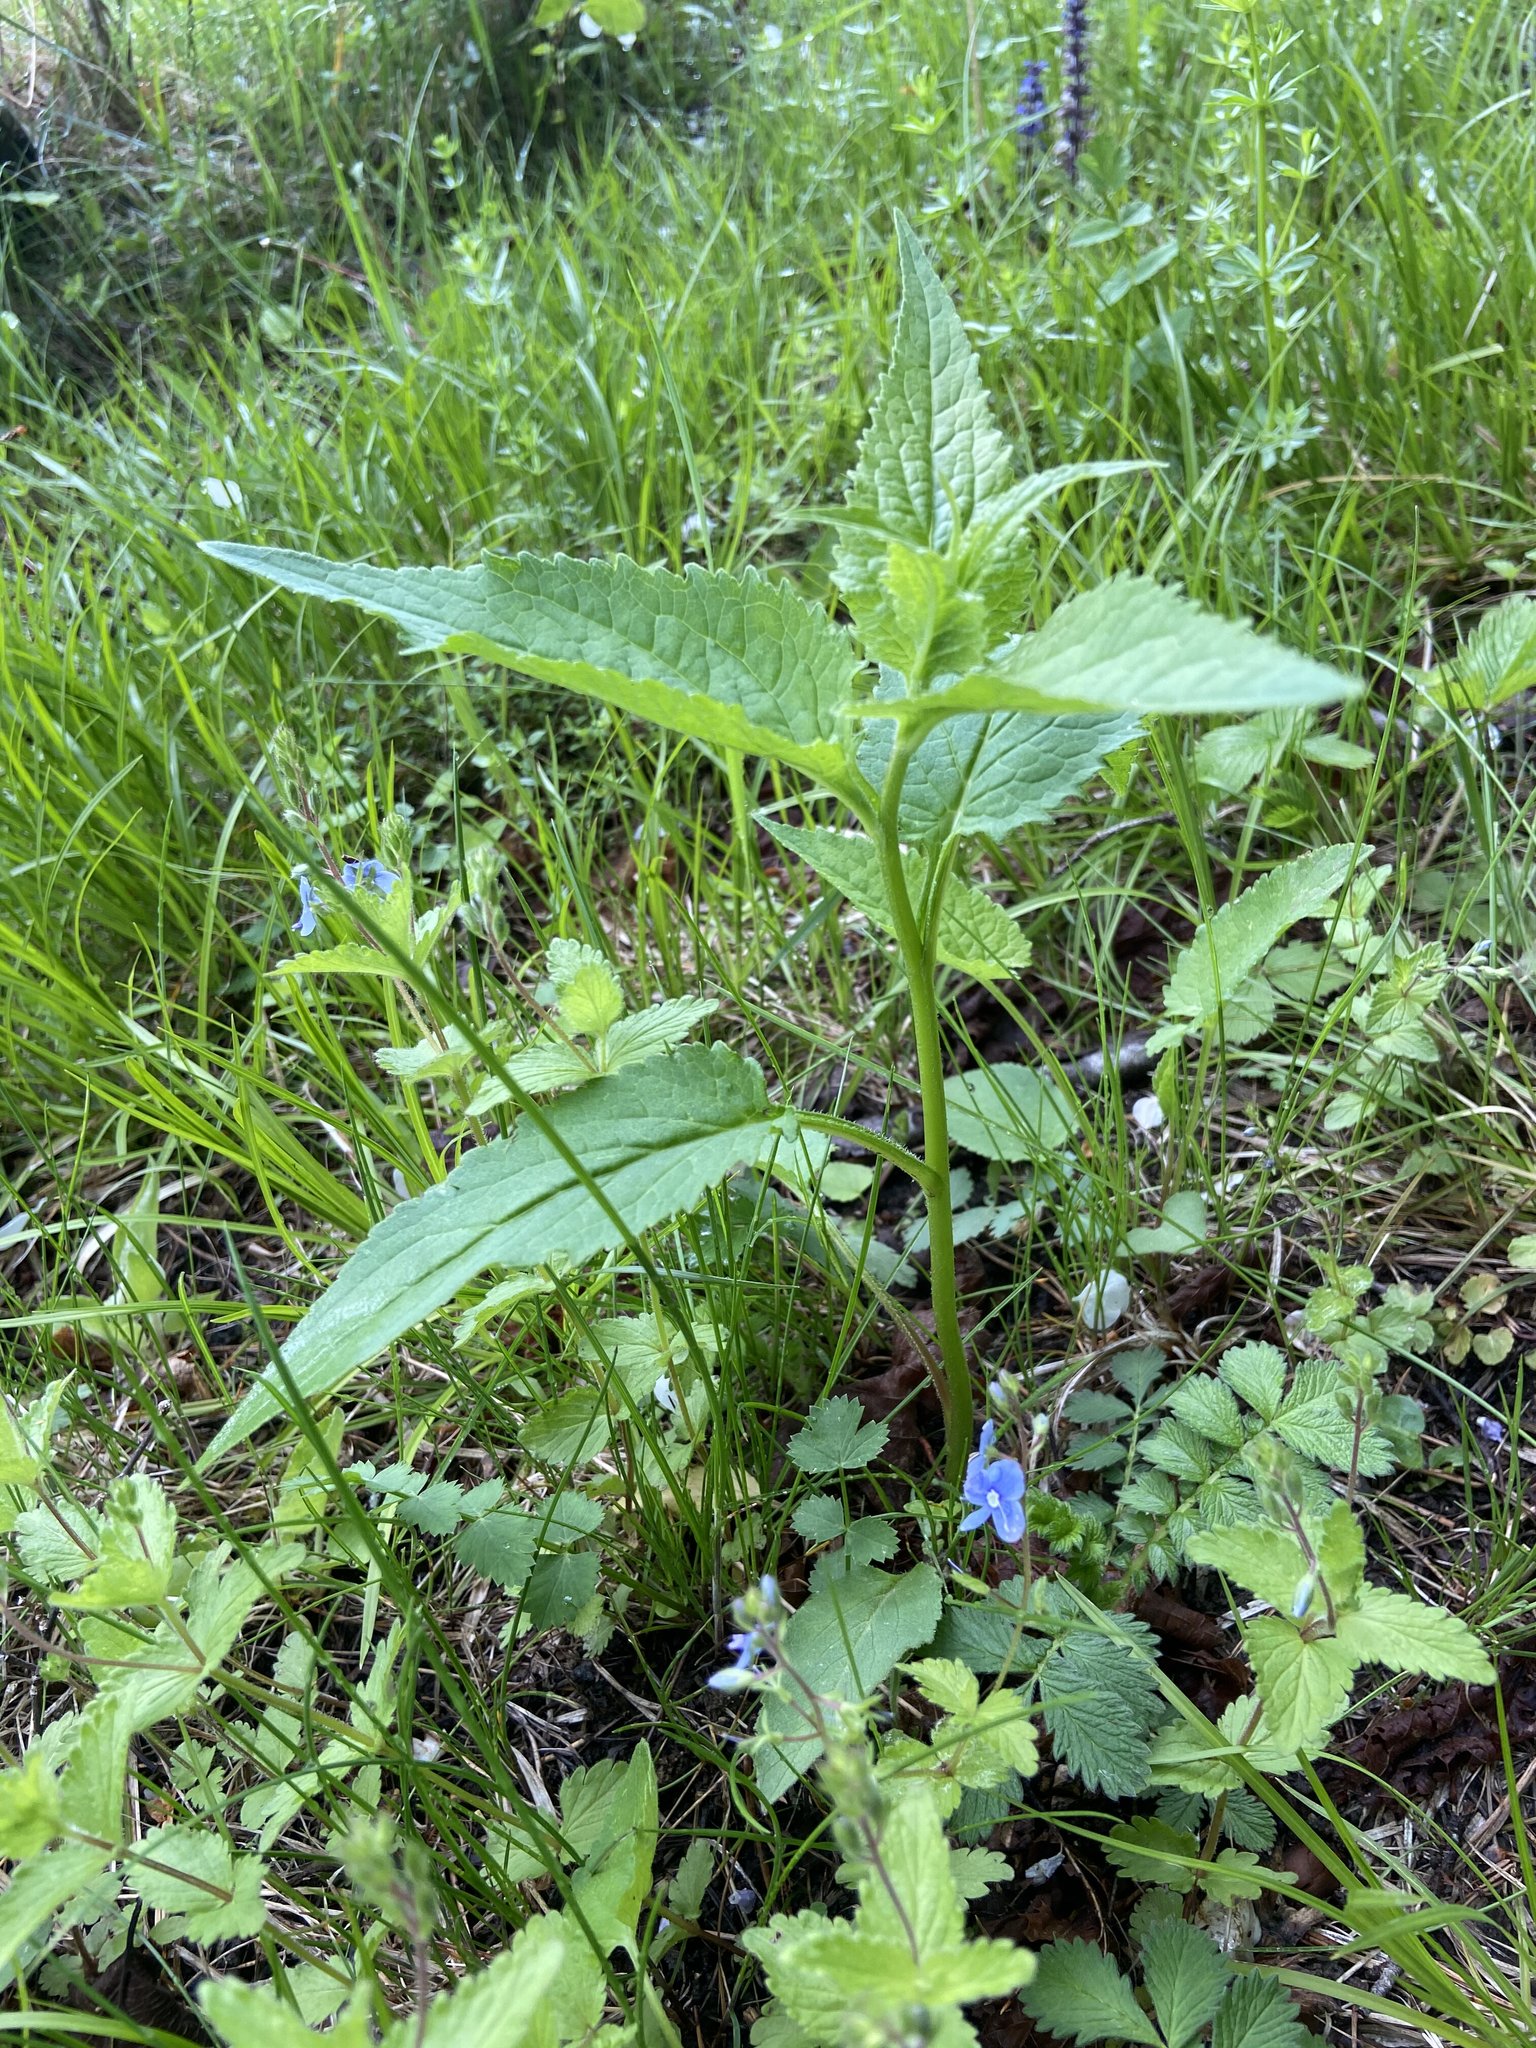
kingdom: Plantae
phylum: Tracheophyta
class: Magnoliopsida
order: Asterales
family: Campanulaceae
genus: Campanula
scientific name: Campanula rapunculoides
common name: Creeping bellflower
